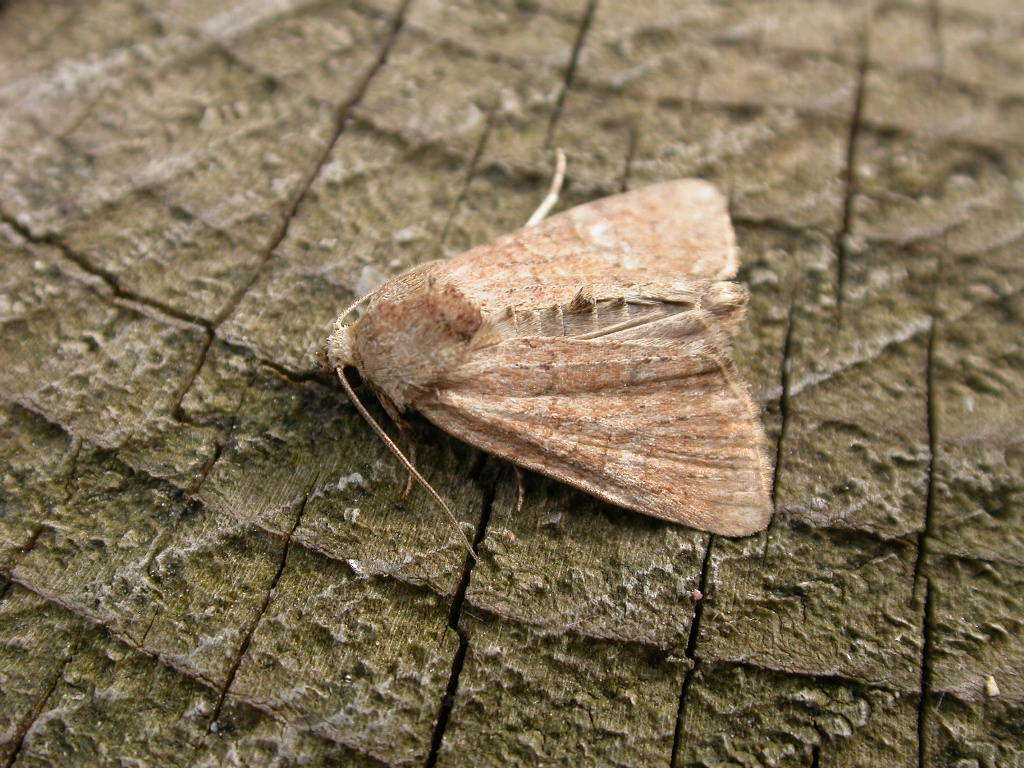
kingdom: Animalia
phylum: Arthropoda
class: Insecta
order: Lepidoptera
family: Noctuidae
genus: Mesoligia
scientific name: Mesoligia furuncula
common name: Cloaked minor
